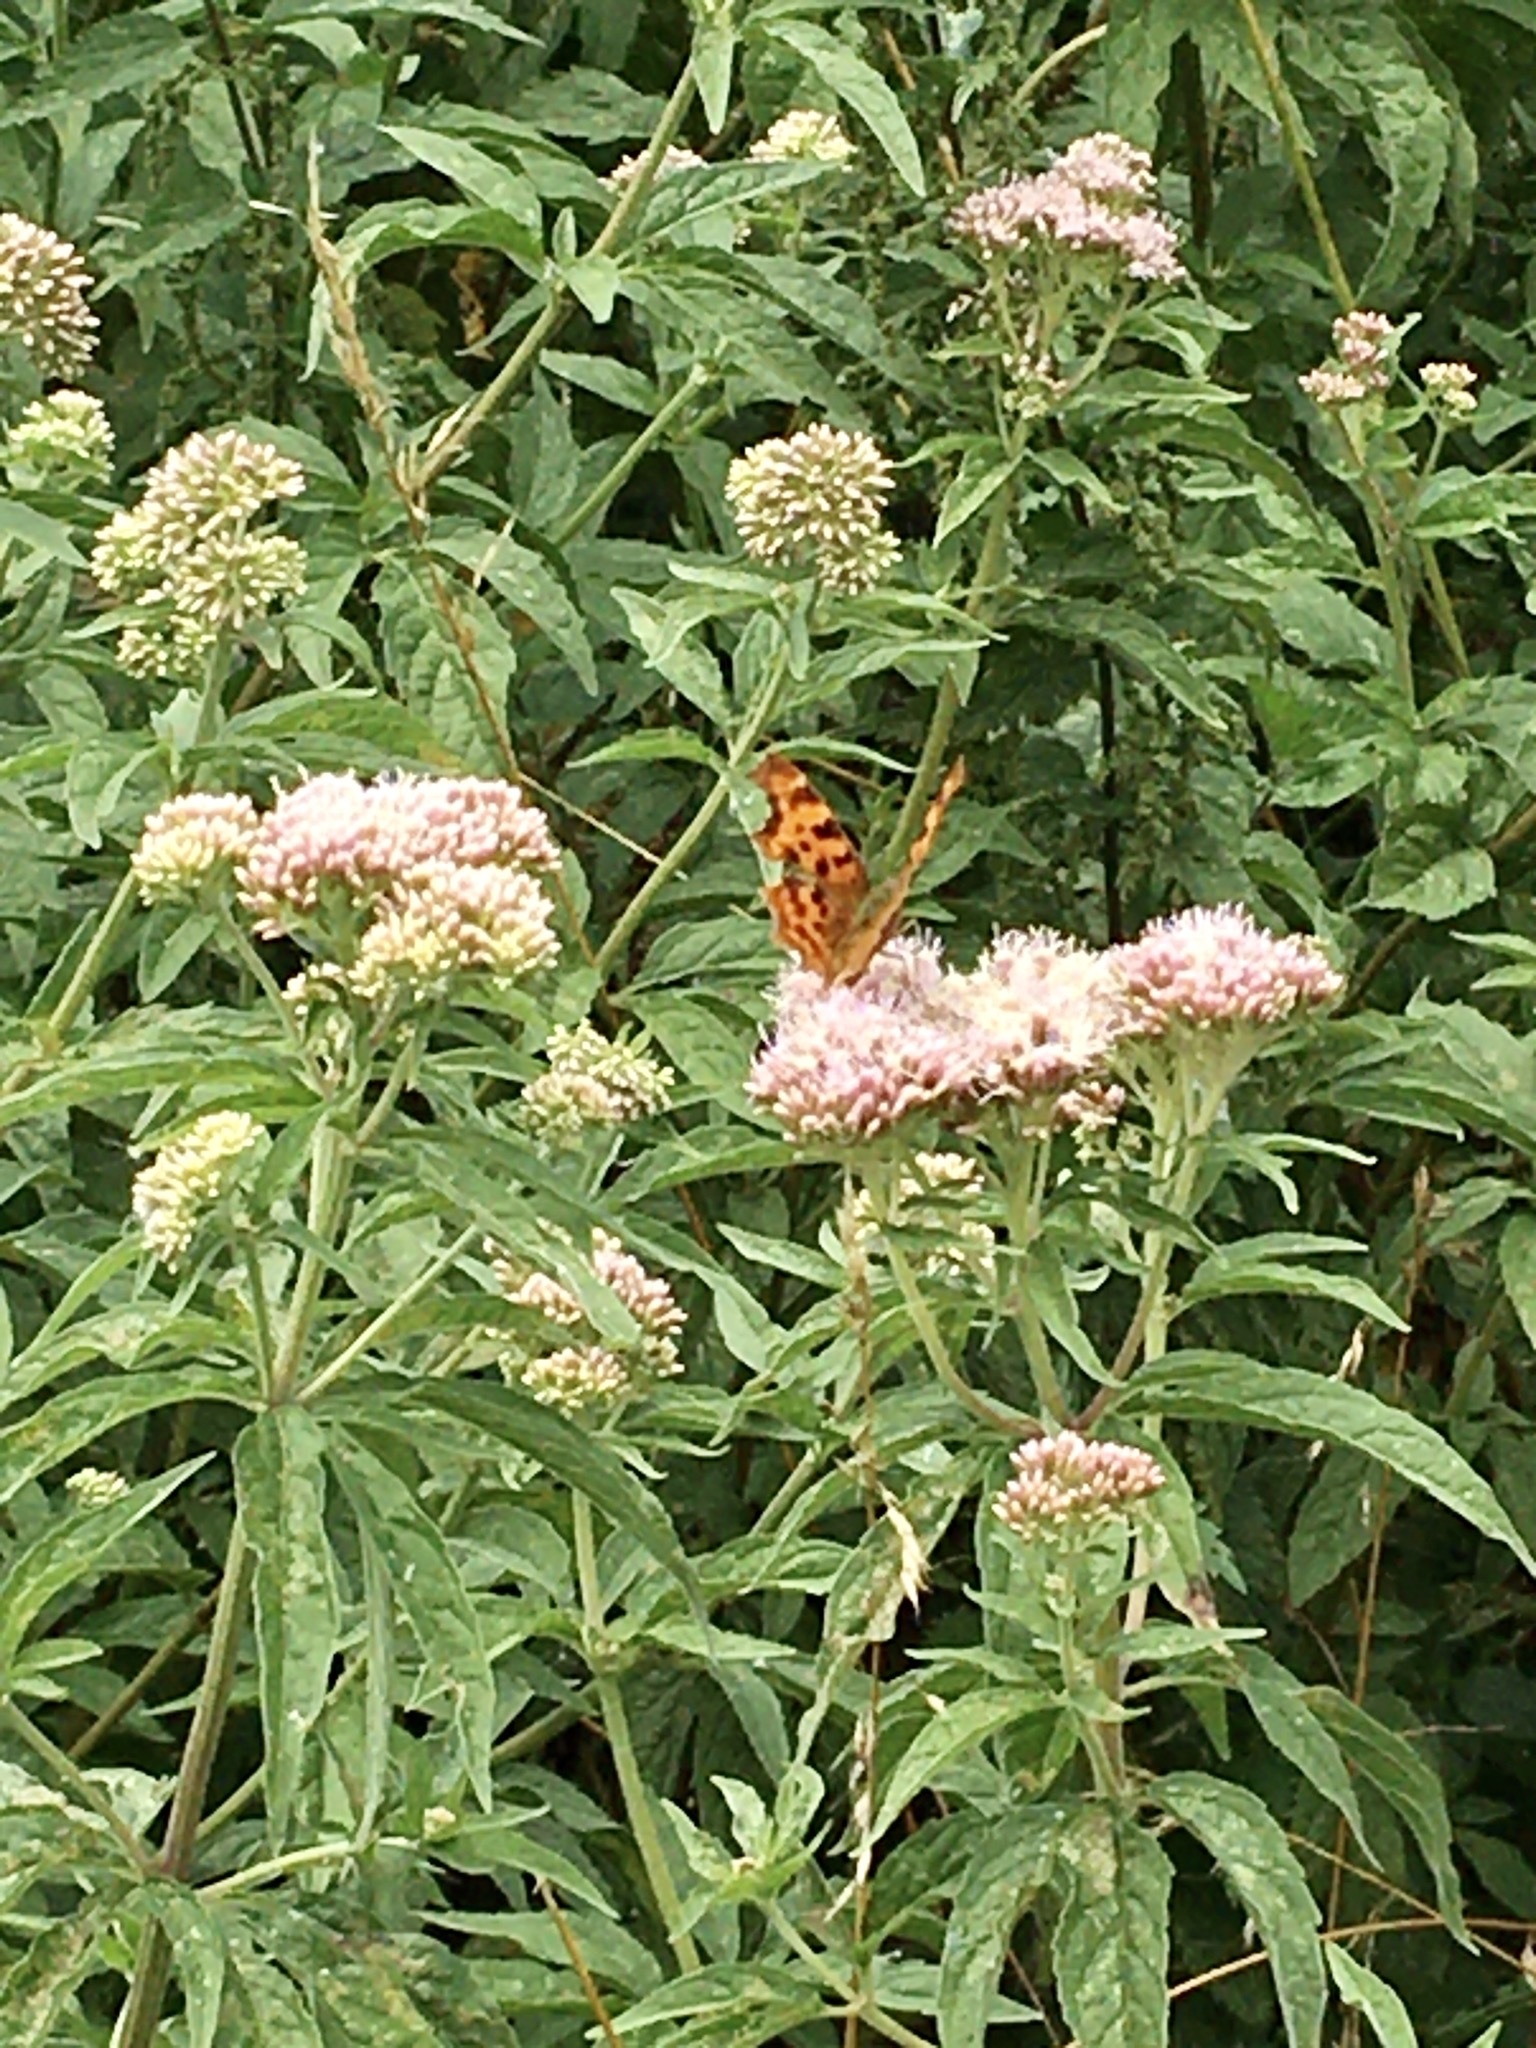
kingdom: Animalia
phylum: Arthropoda
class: Insecta
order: Lepidoptera
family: Nymphalidae
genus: Polygonia
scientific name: Polygonia c-album
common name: Comma
